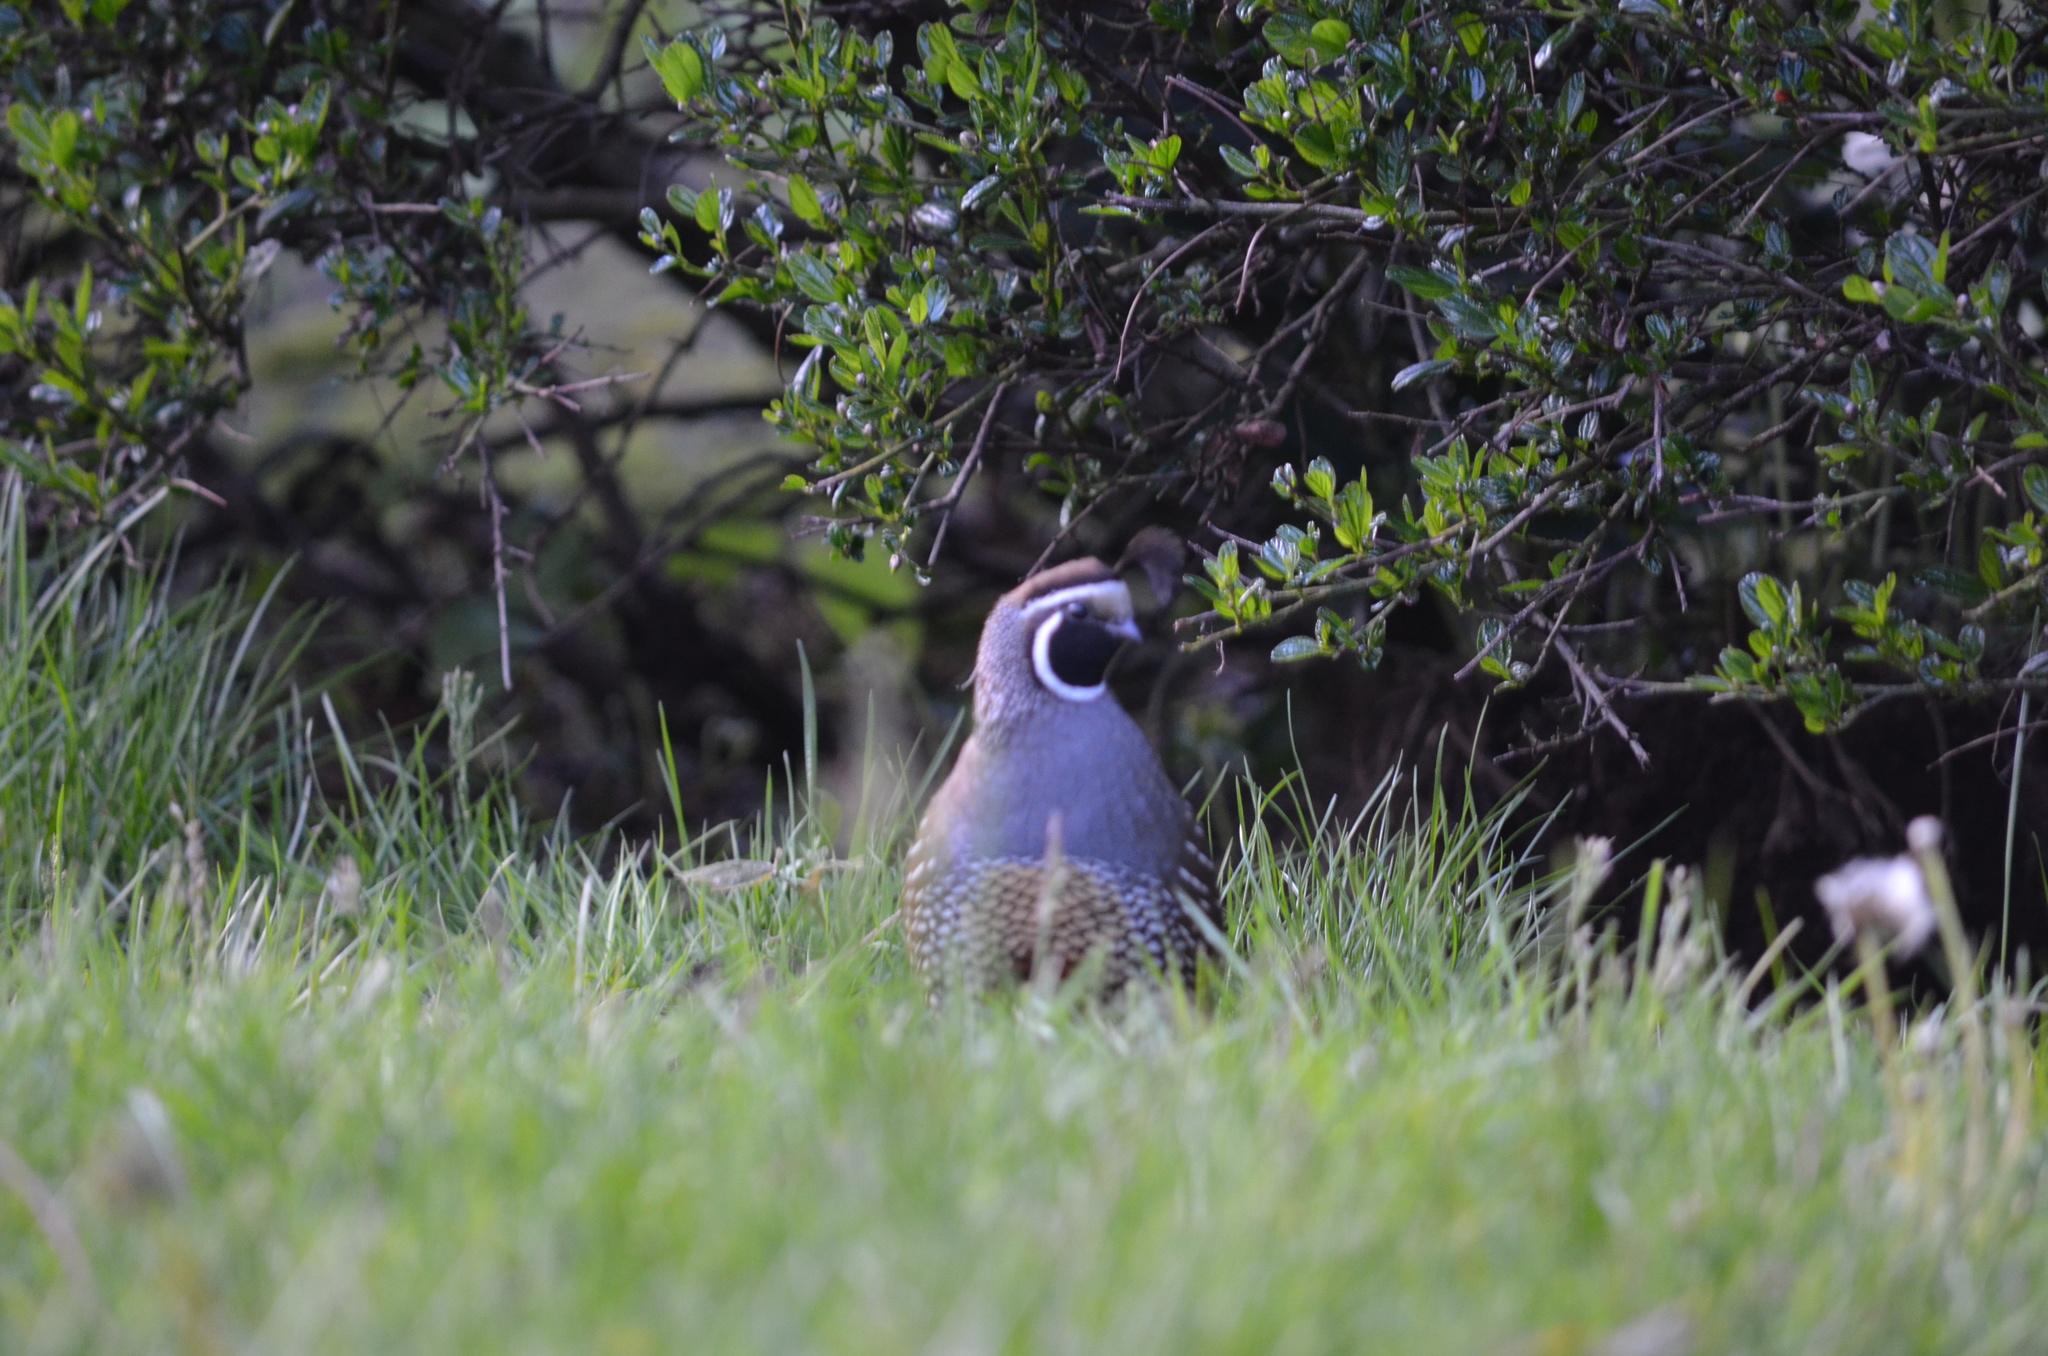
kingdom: Animalia
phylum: Chordata
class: Aves
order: Galliformes
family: Odontophoridae
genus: Callipepla
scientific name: Callipepla californica
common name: California quail
